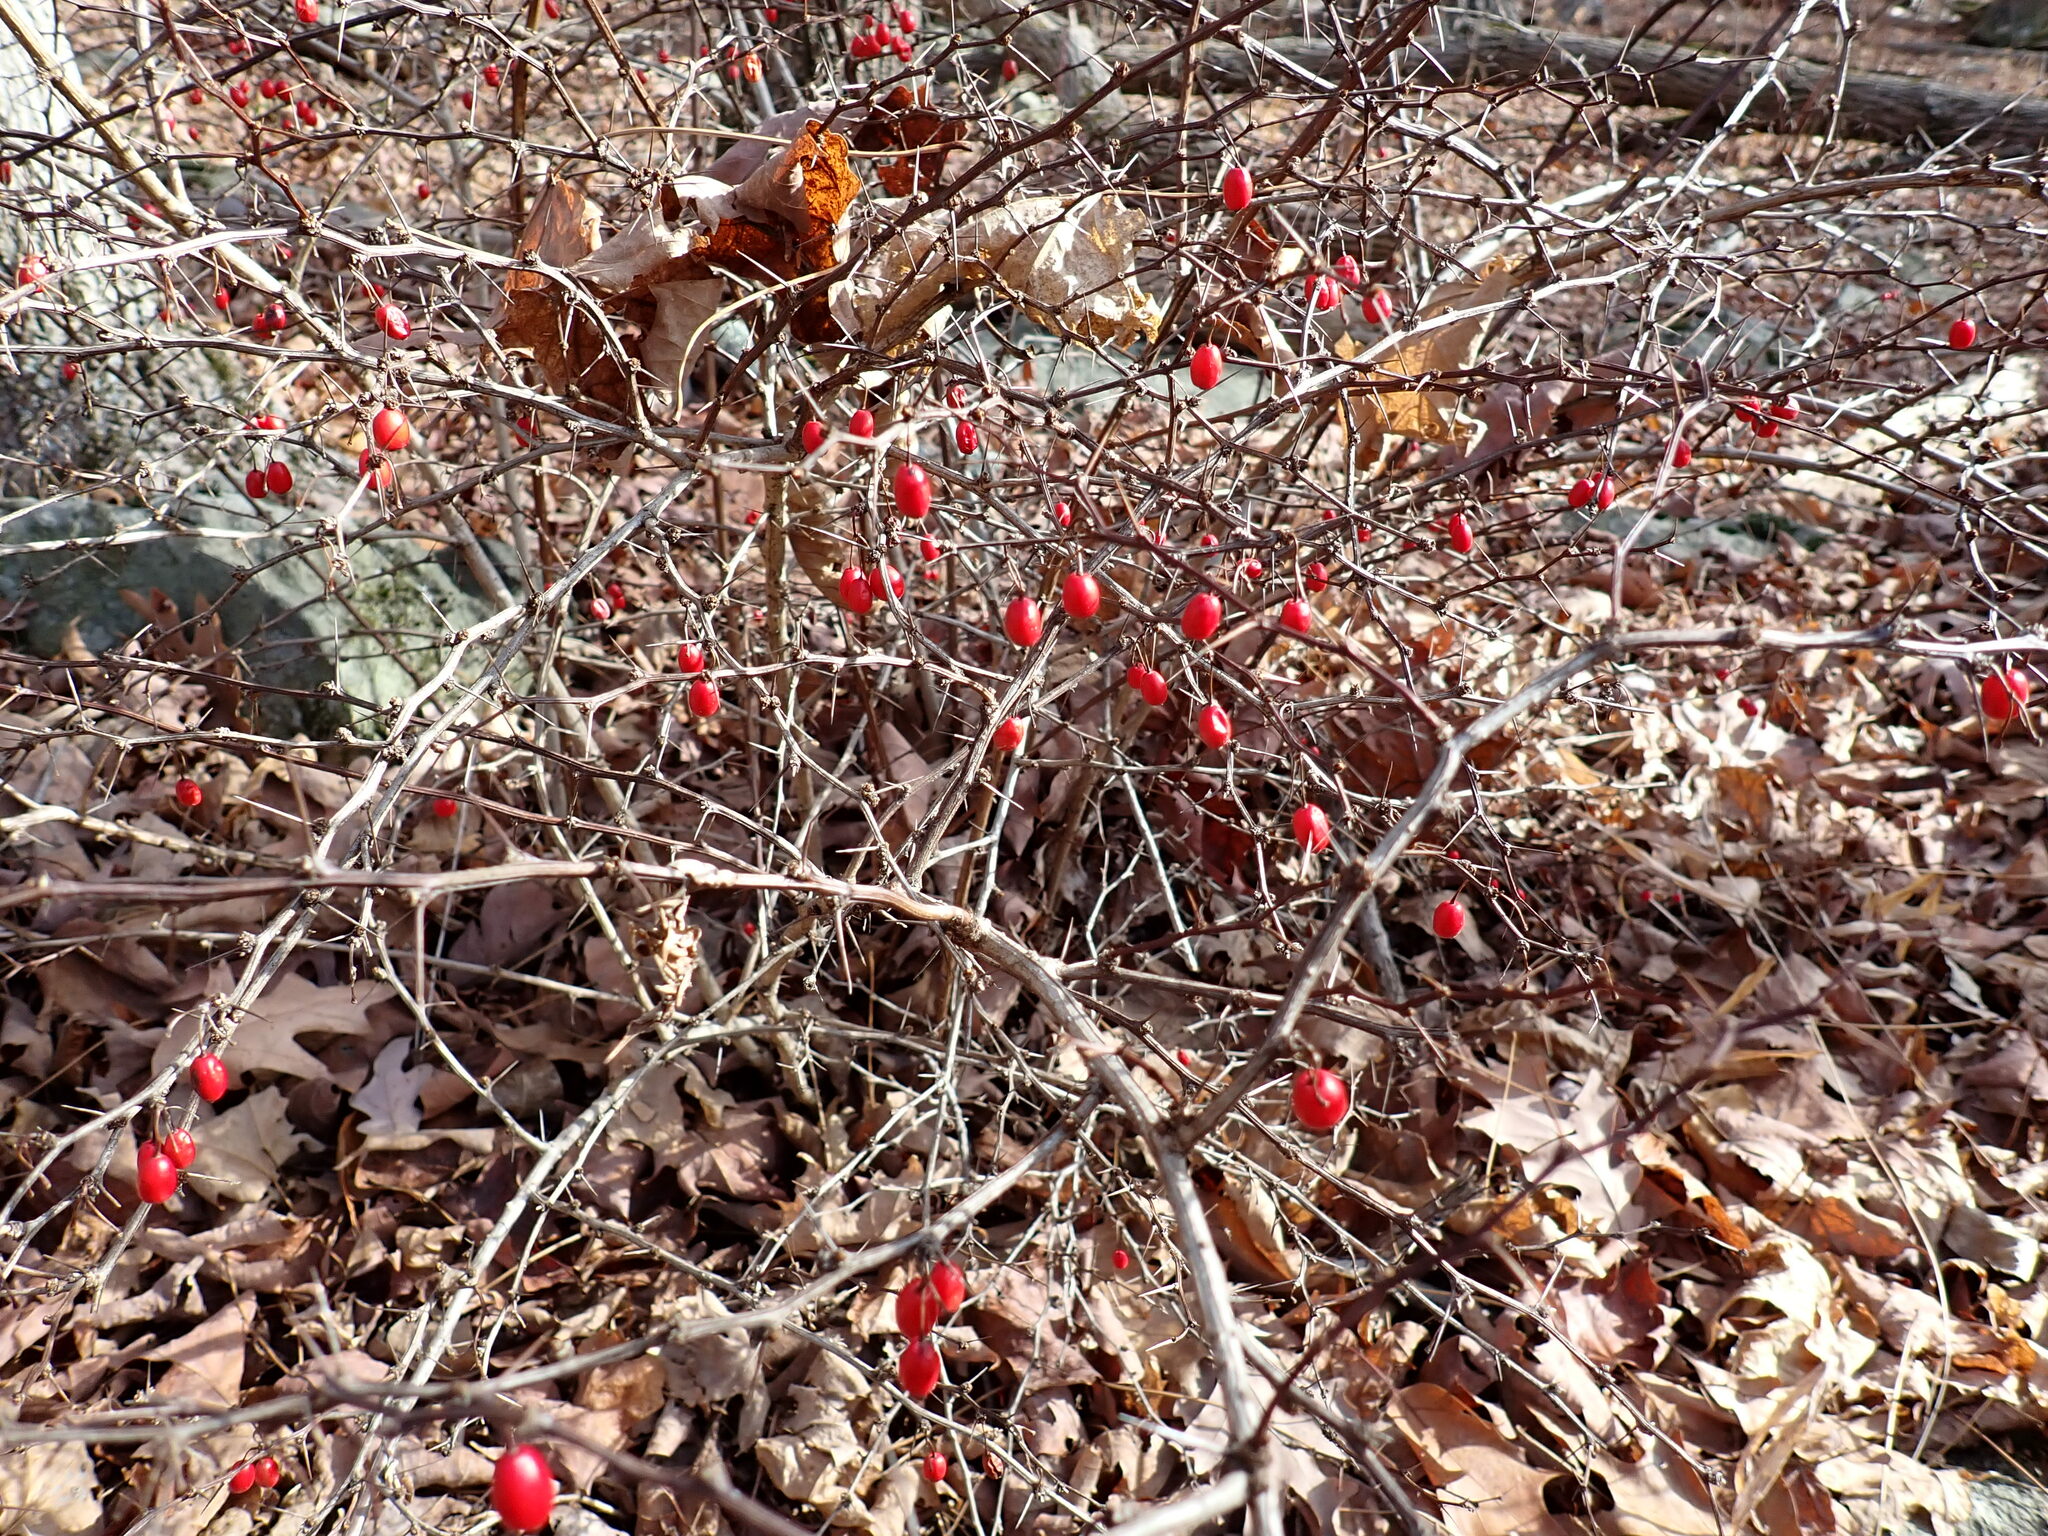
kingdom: Plantae
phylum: Tracheophyta
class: Magnoliopsida
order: Ranunculales
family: Berberidaceae
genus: Berberis
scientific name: Berberis thunbergii
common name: Japanese barberry
